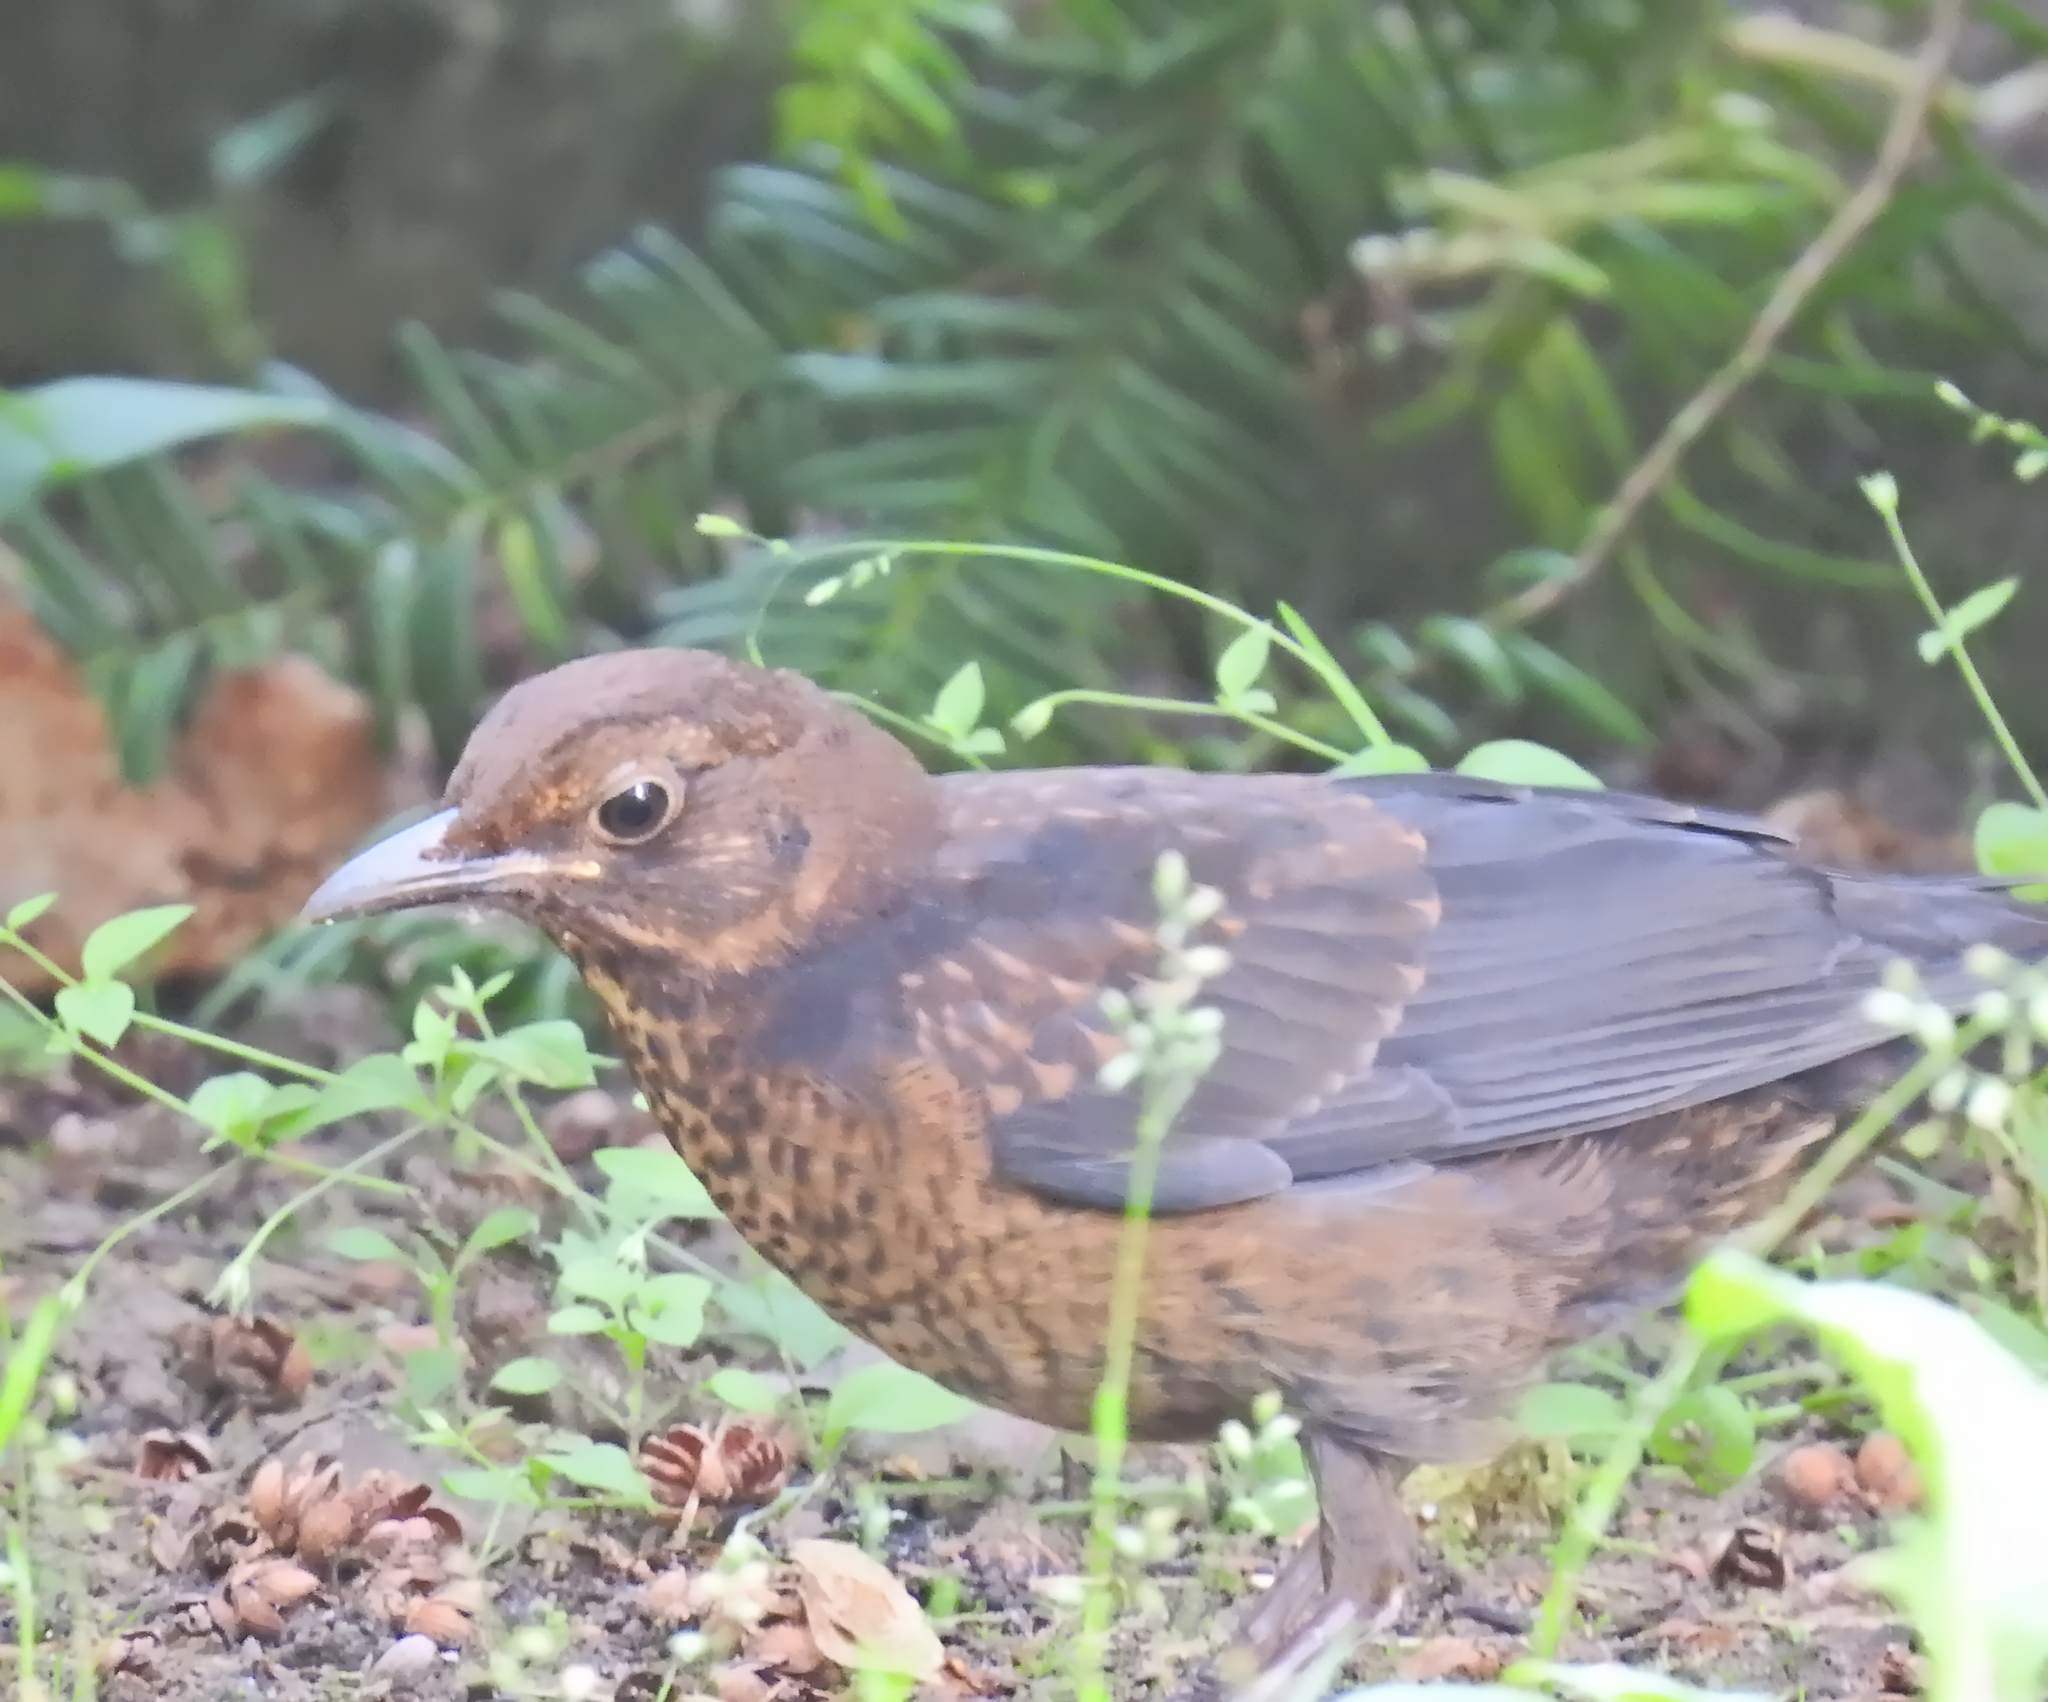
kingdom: Animalia
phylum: Chordata
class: Aves
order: Passeriformes
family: Turdidae
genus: Turdus
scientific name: Turdus merula
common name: Common blackbird
